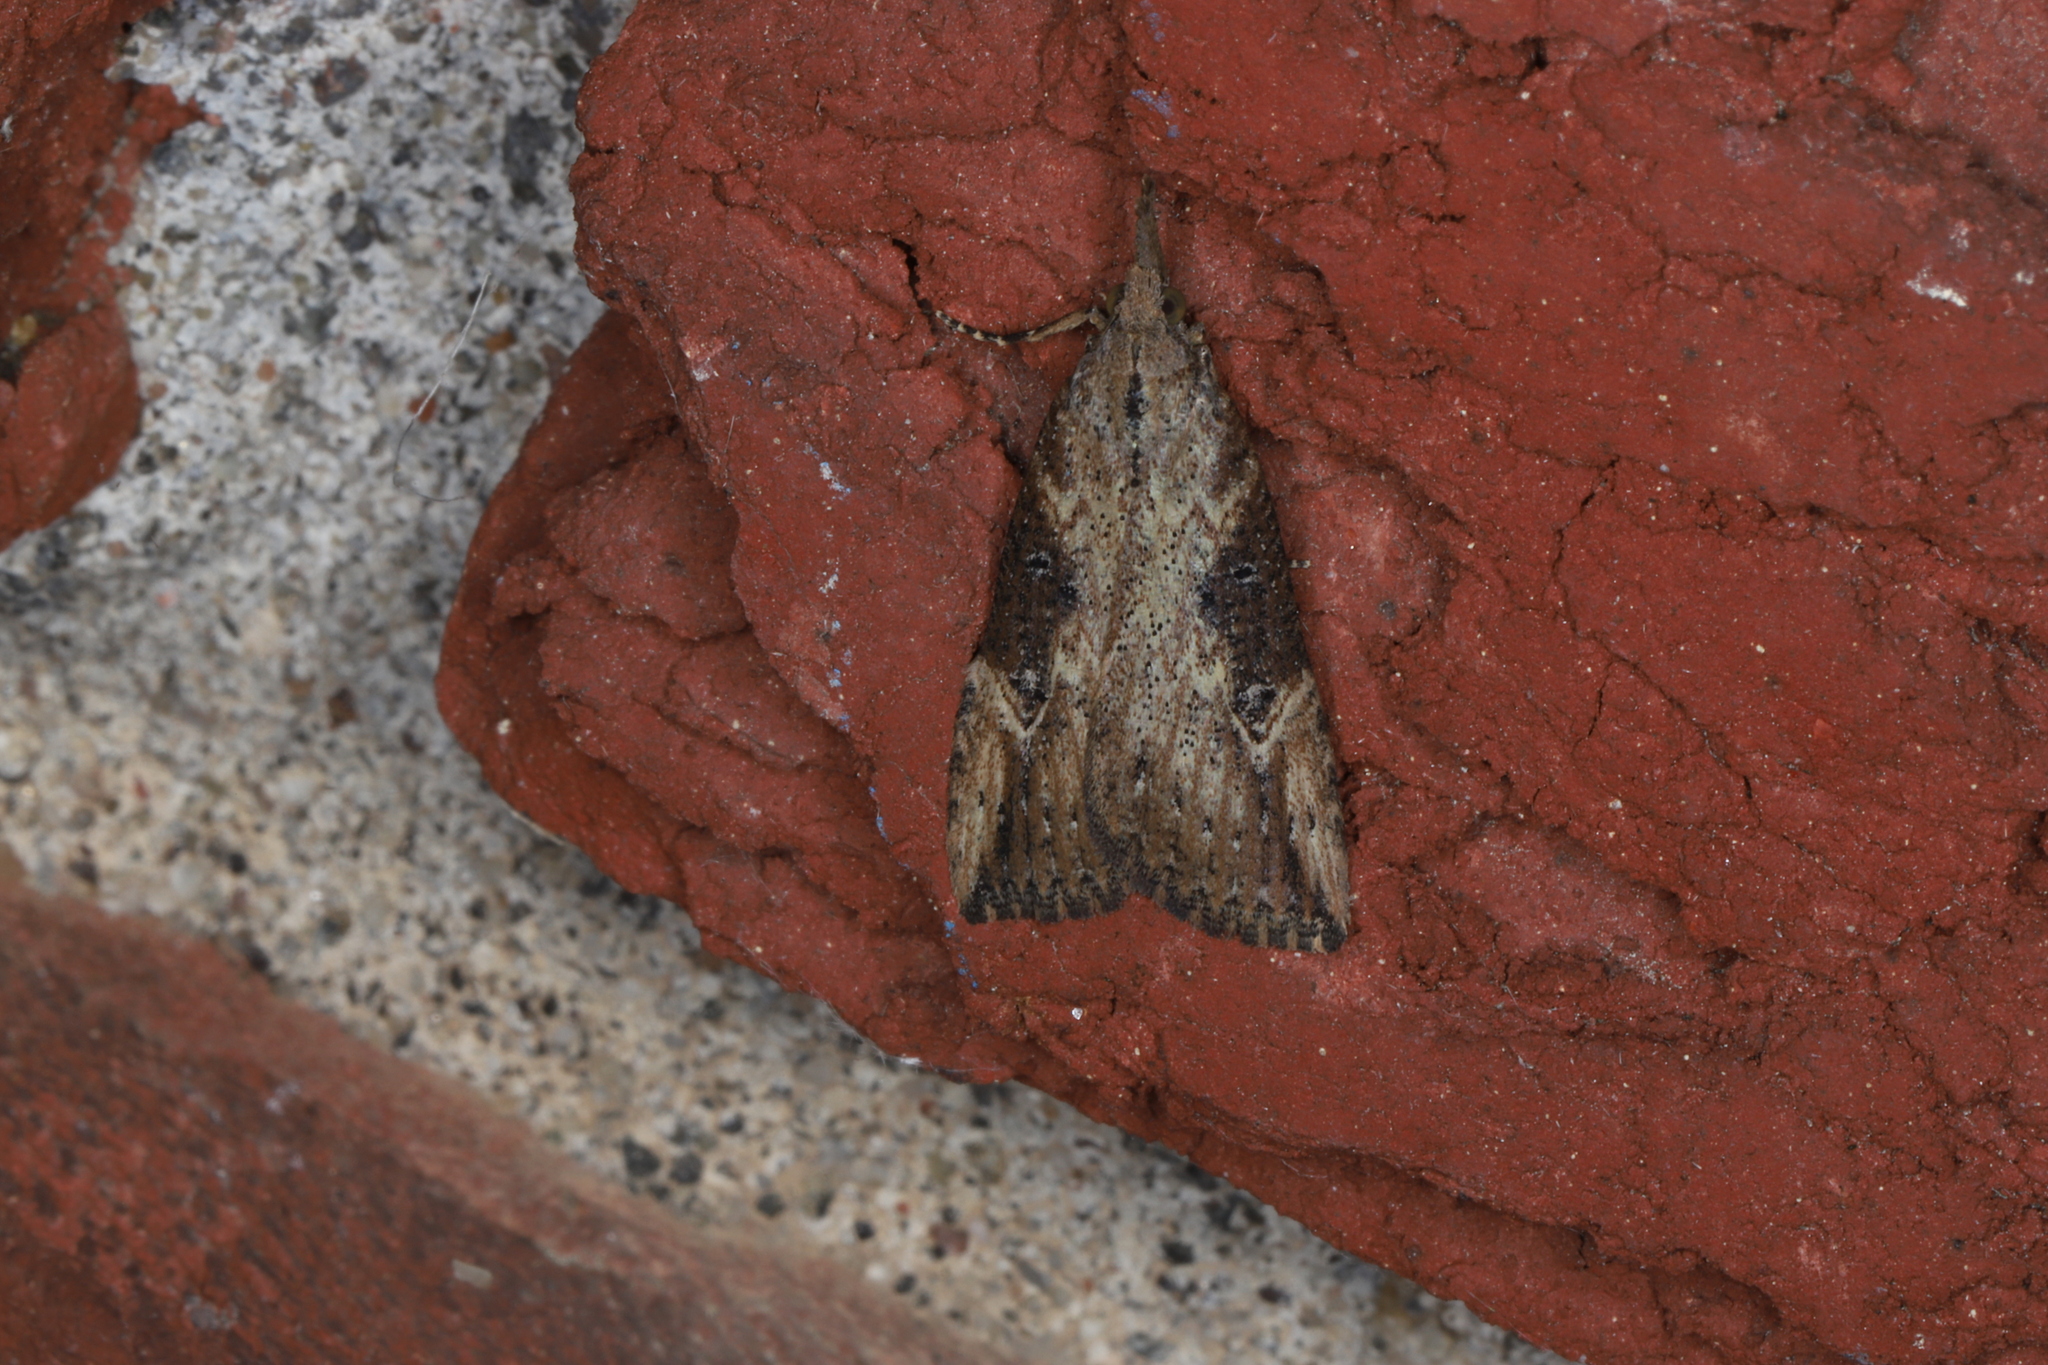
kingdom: Animalia
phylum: Arthropoda
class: Insecta
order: Lepidoptera
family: Erebidae
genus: Hypena
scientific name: Hypena humuli
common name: Hop vine snout
